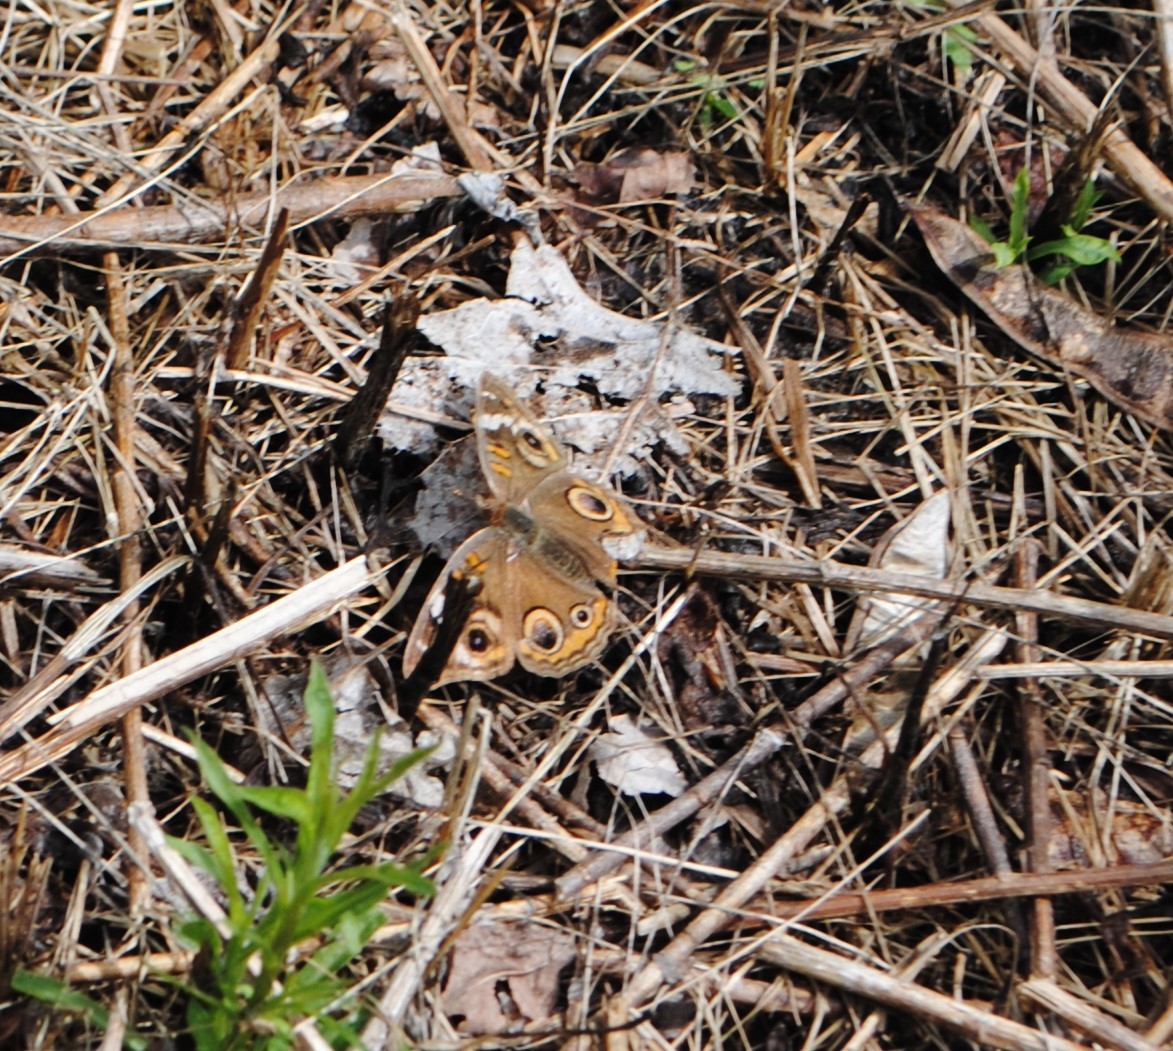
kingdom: Animalia
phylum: Arthropoda
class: Insecta
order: Lepidoptera
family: Nymphalidae
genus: Junonia
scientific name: Junonia coenia
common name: Common buckeye
